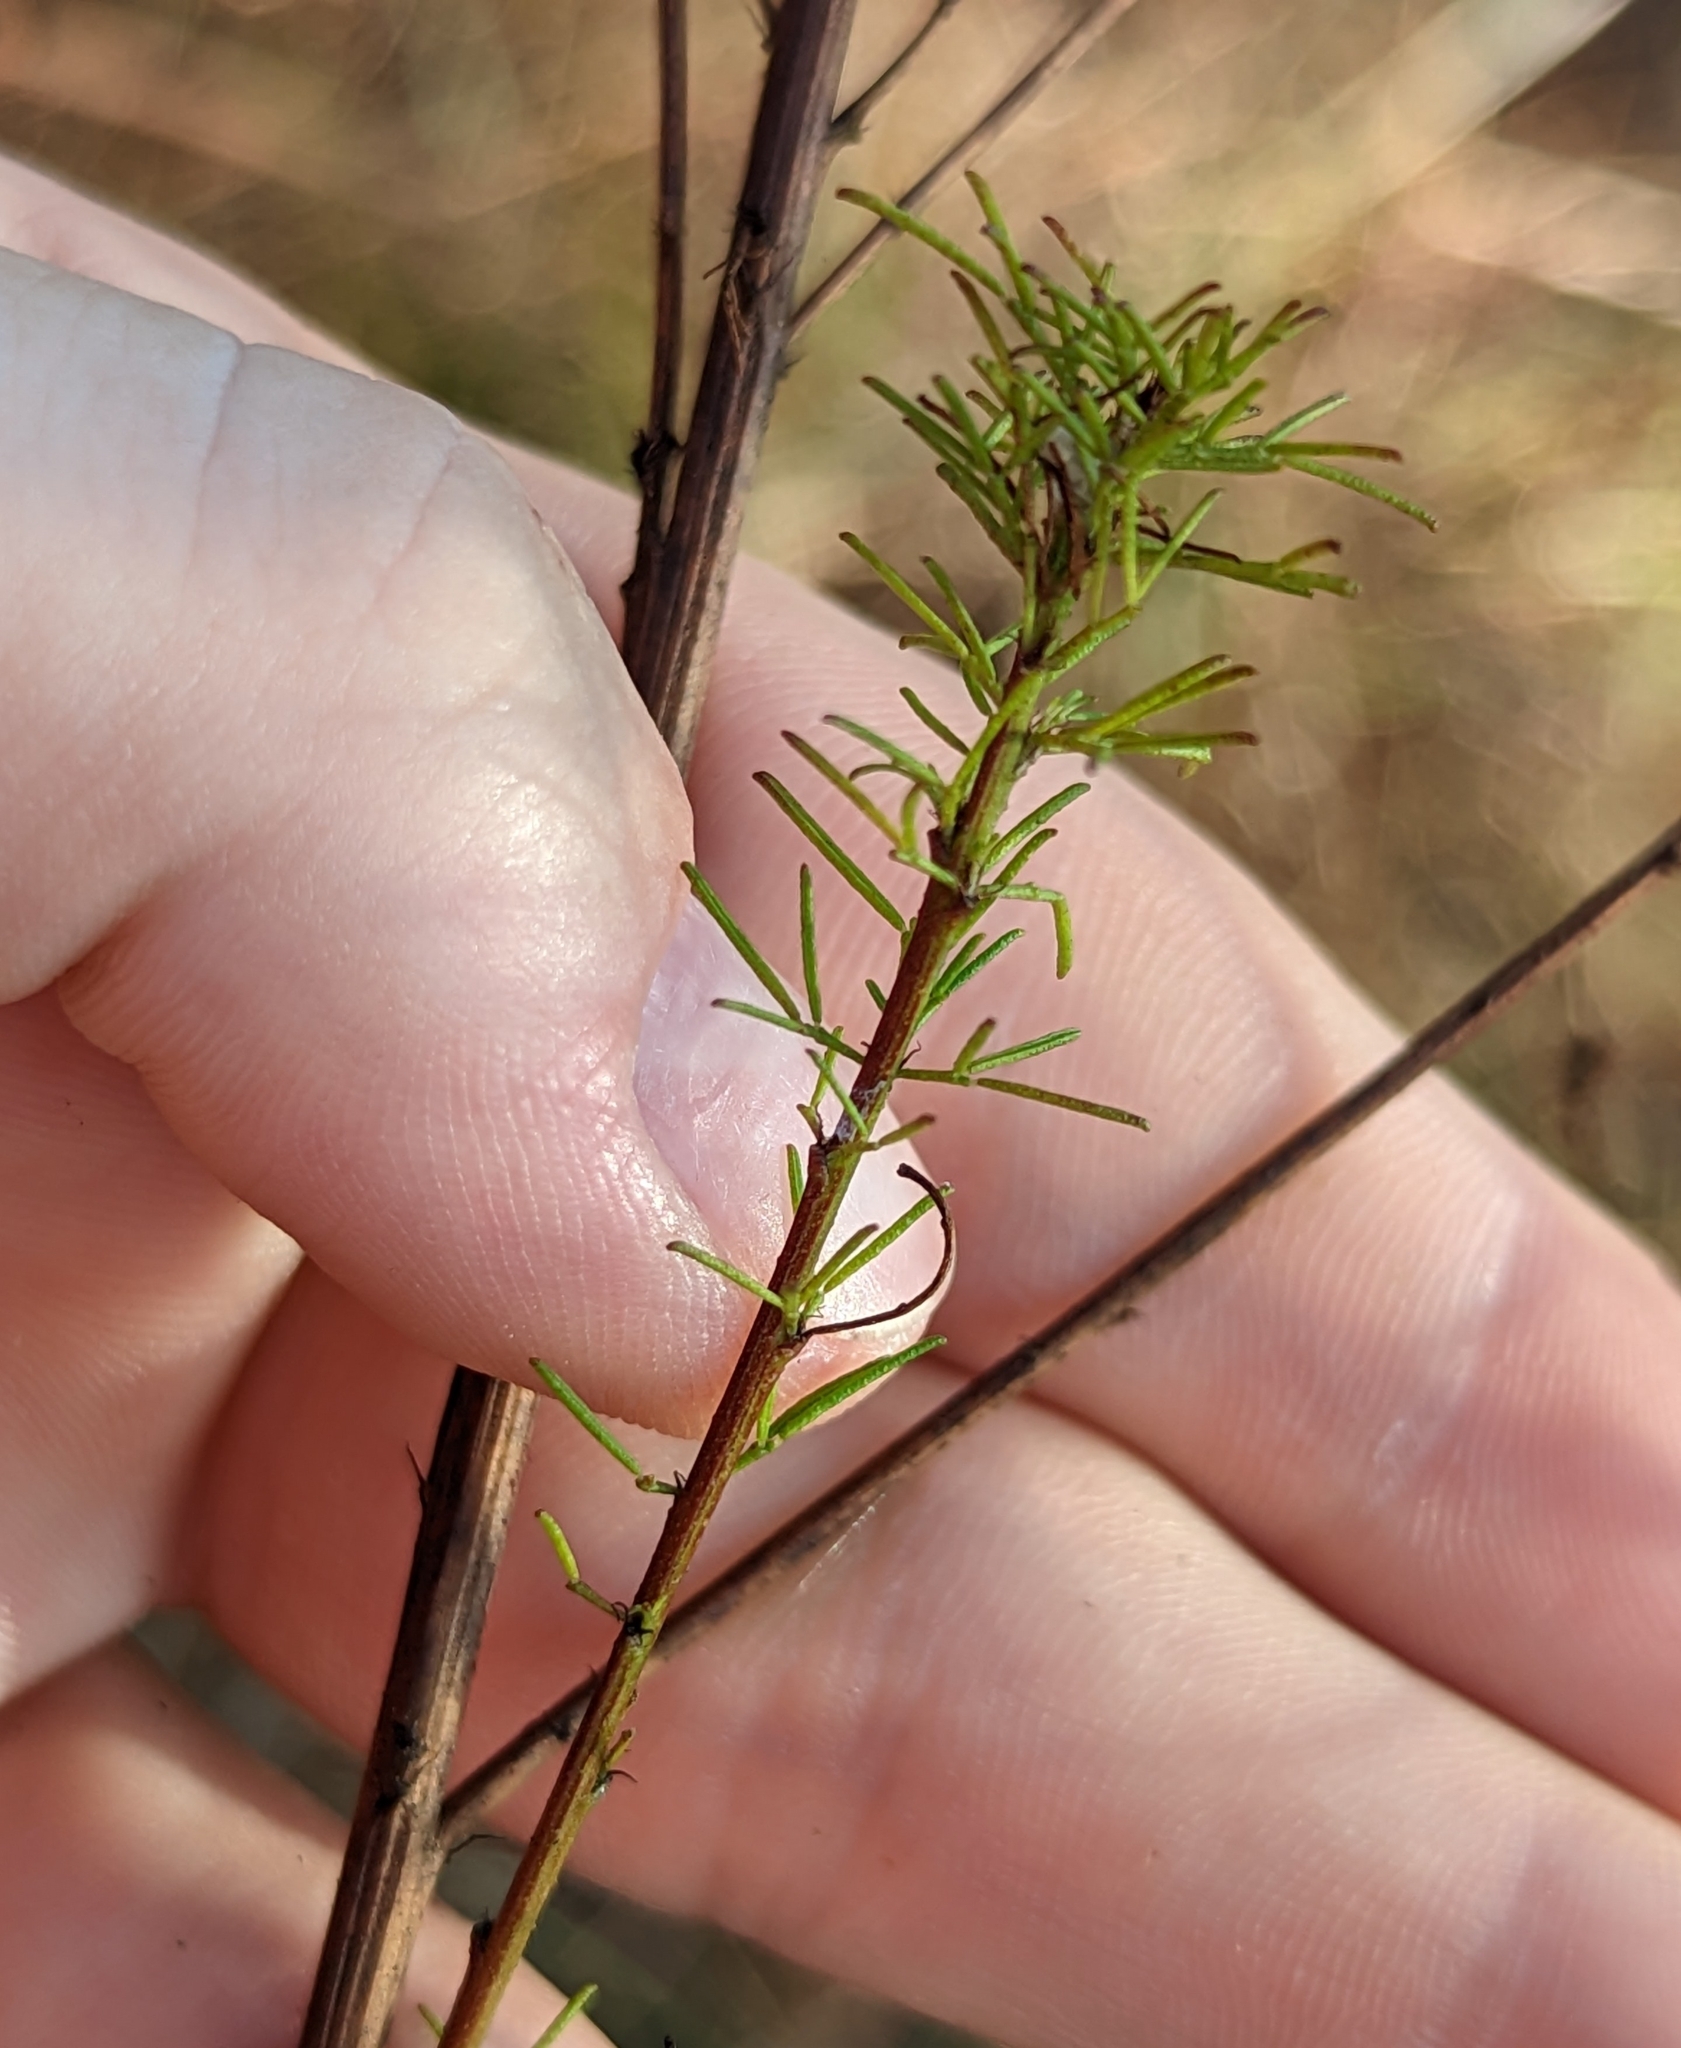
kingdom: Plantae
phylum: Tracheophyta
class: Magnoliopsida
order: Fabales
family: Fabaceae
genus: Dalea
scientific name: Dalea pinnata
